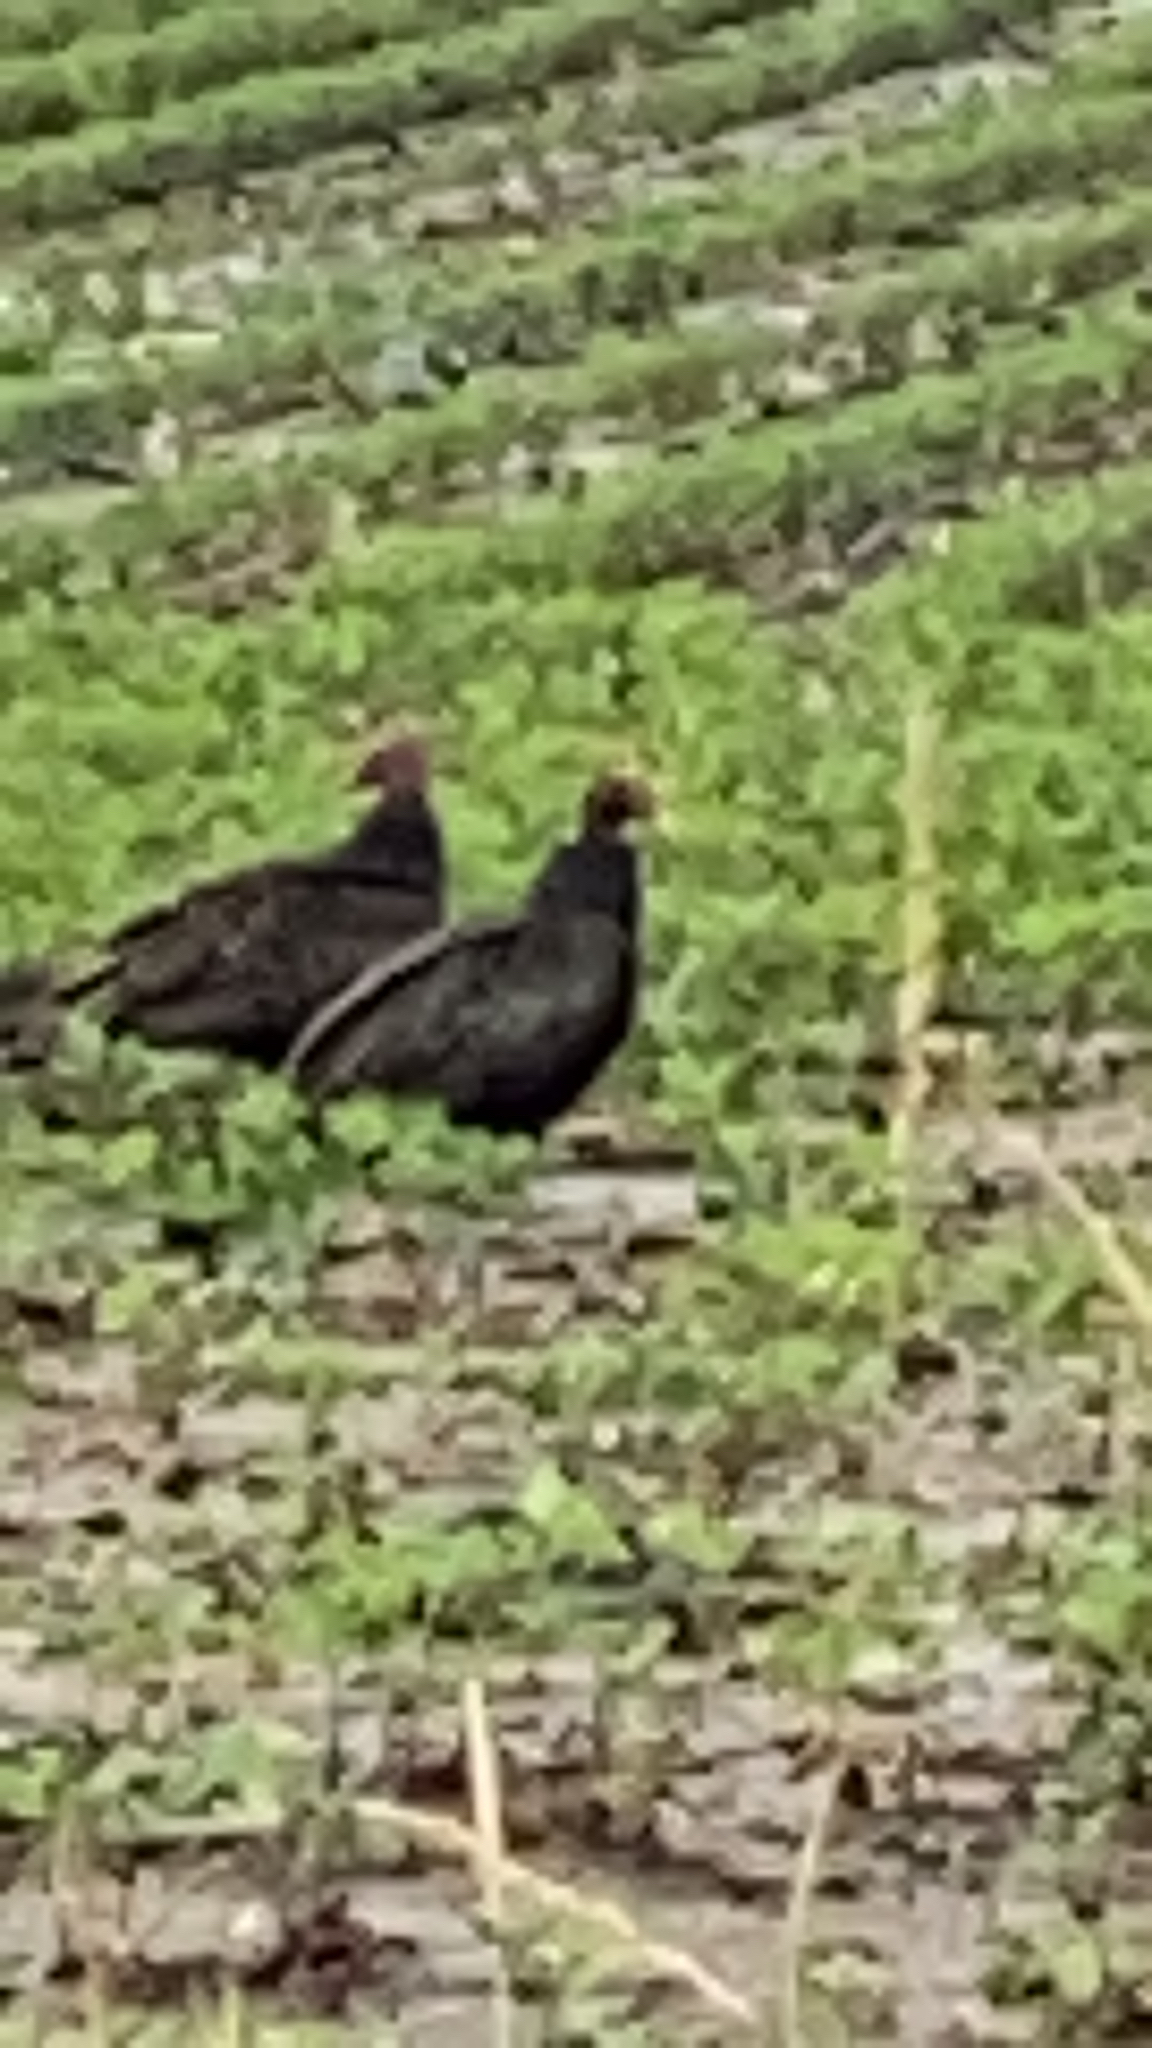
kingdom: Animalia
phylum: Chordata
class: Aves
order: Accipitriformes
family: Cathartidae
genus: Cathartes
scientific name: Cathartes aura
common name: Turkey vulture
